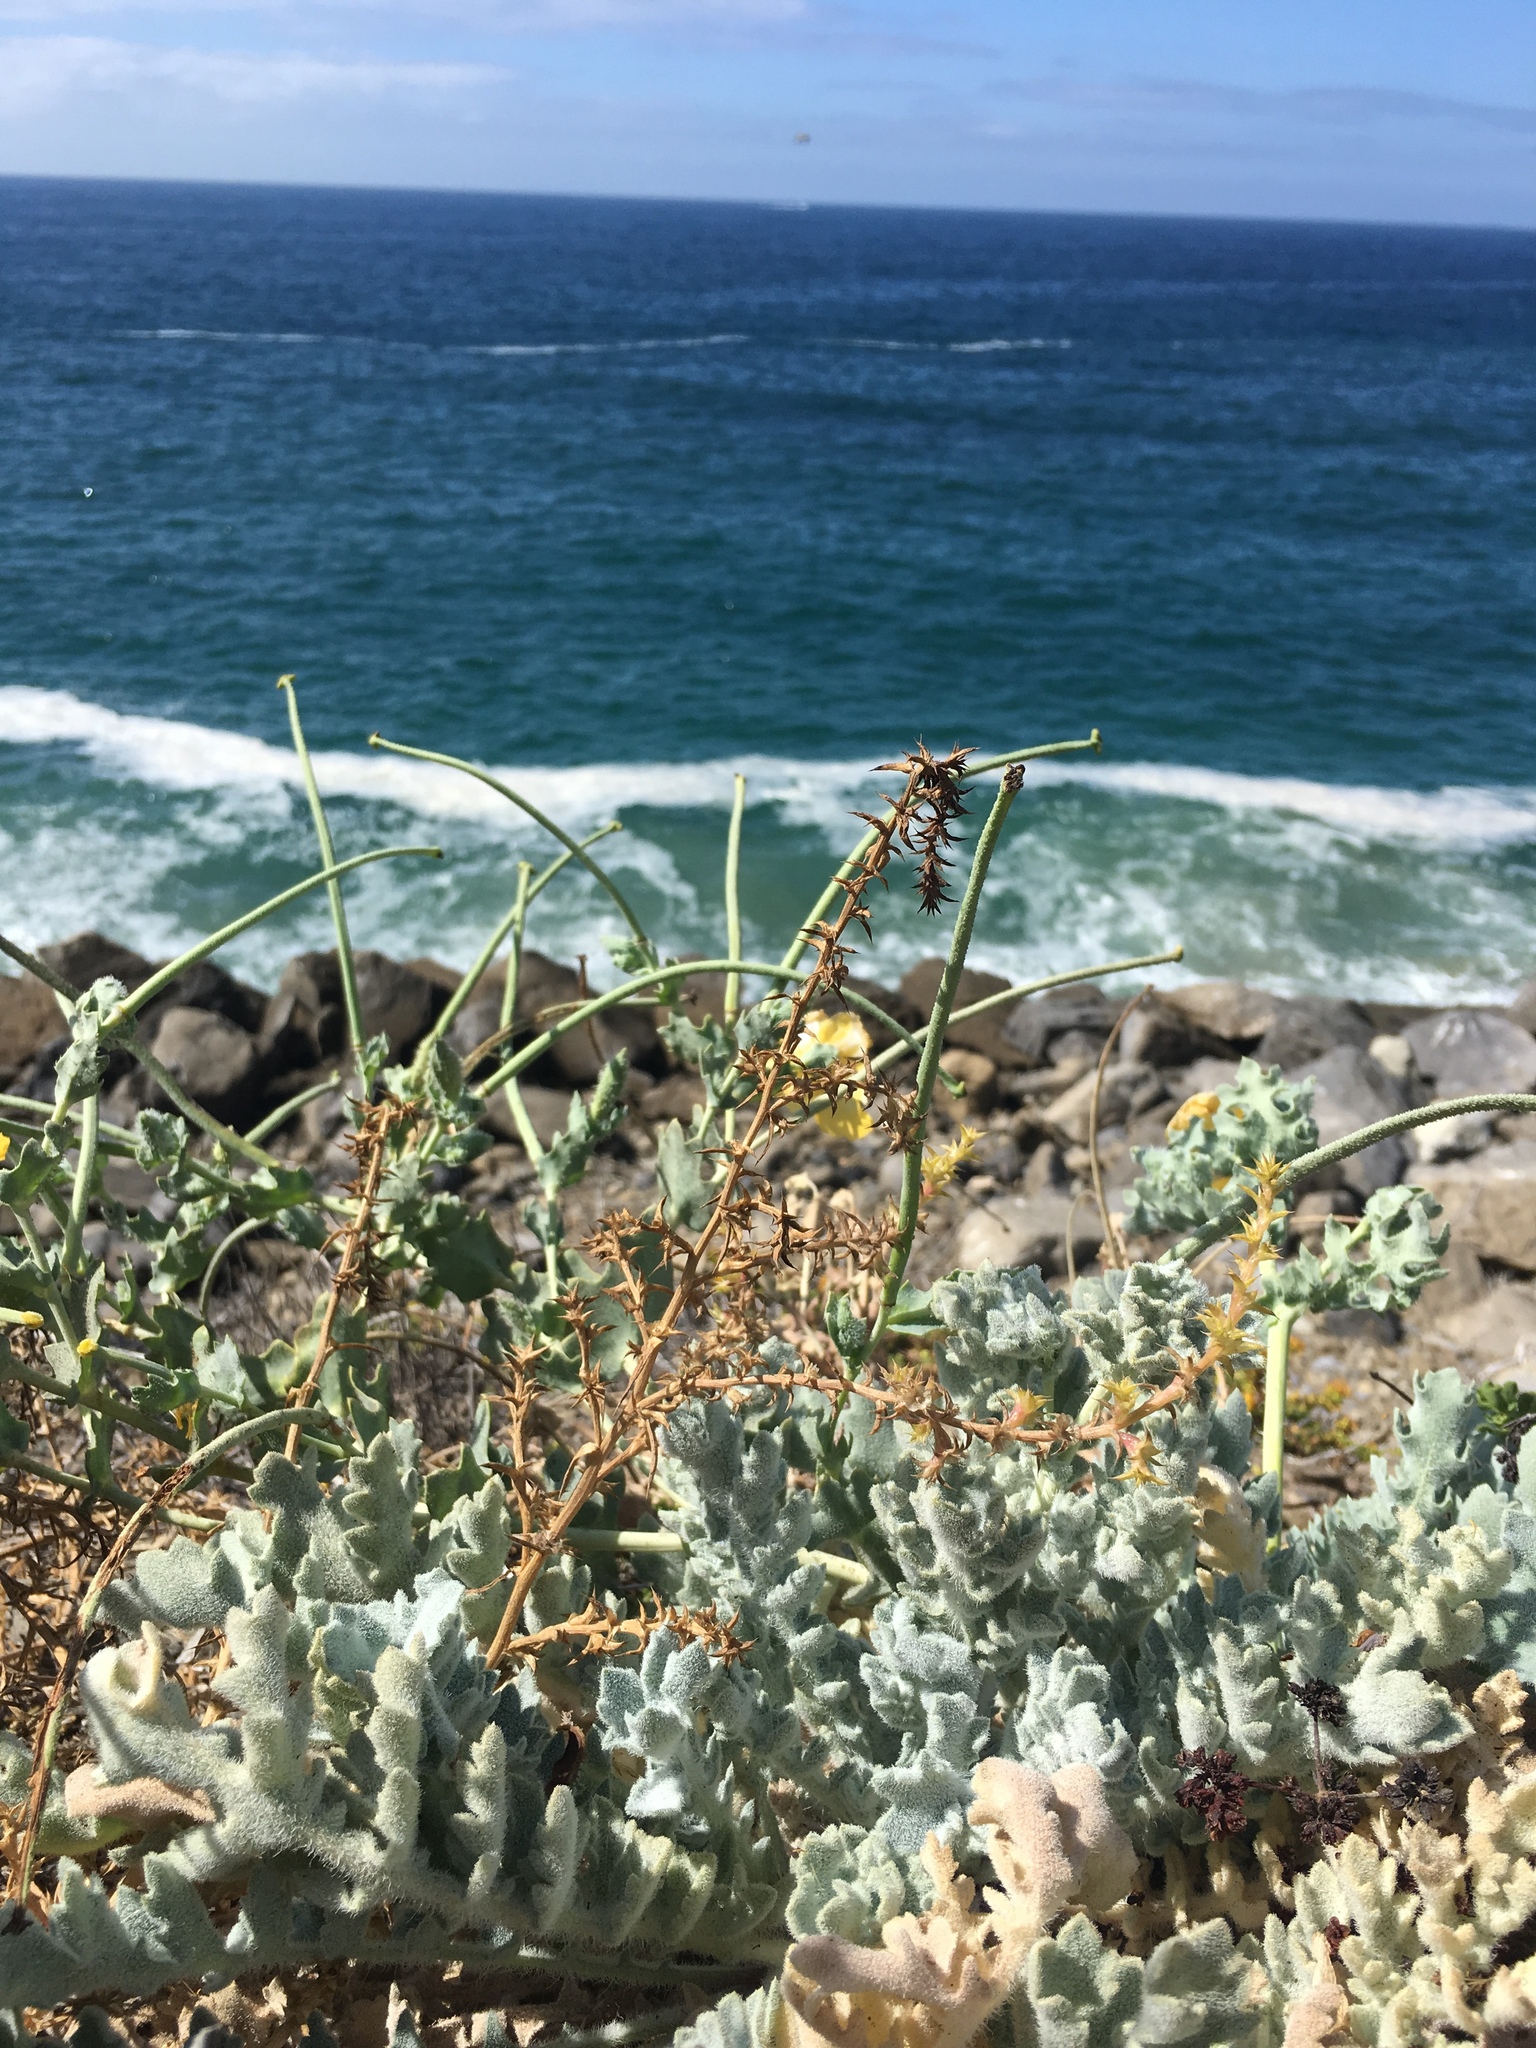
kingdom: Plantae
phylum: Tracheophyta
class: Magnoliopsida
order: Ranunculales
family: Papaveraceae
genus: Glaucium
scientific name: Glaucium flavum
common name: Yellow horned-poppy
